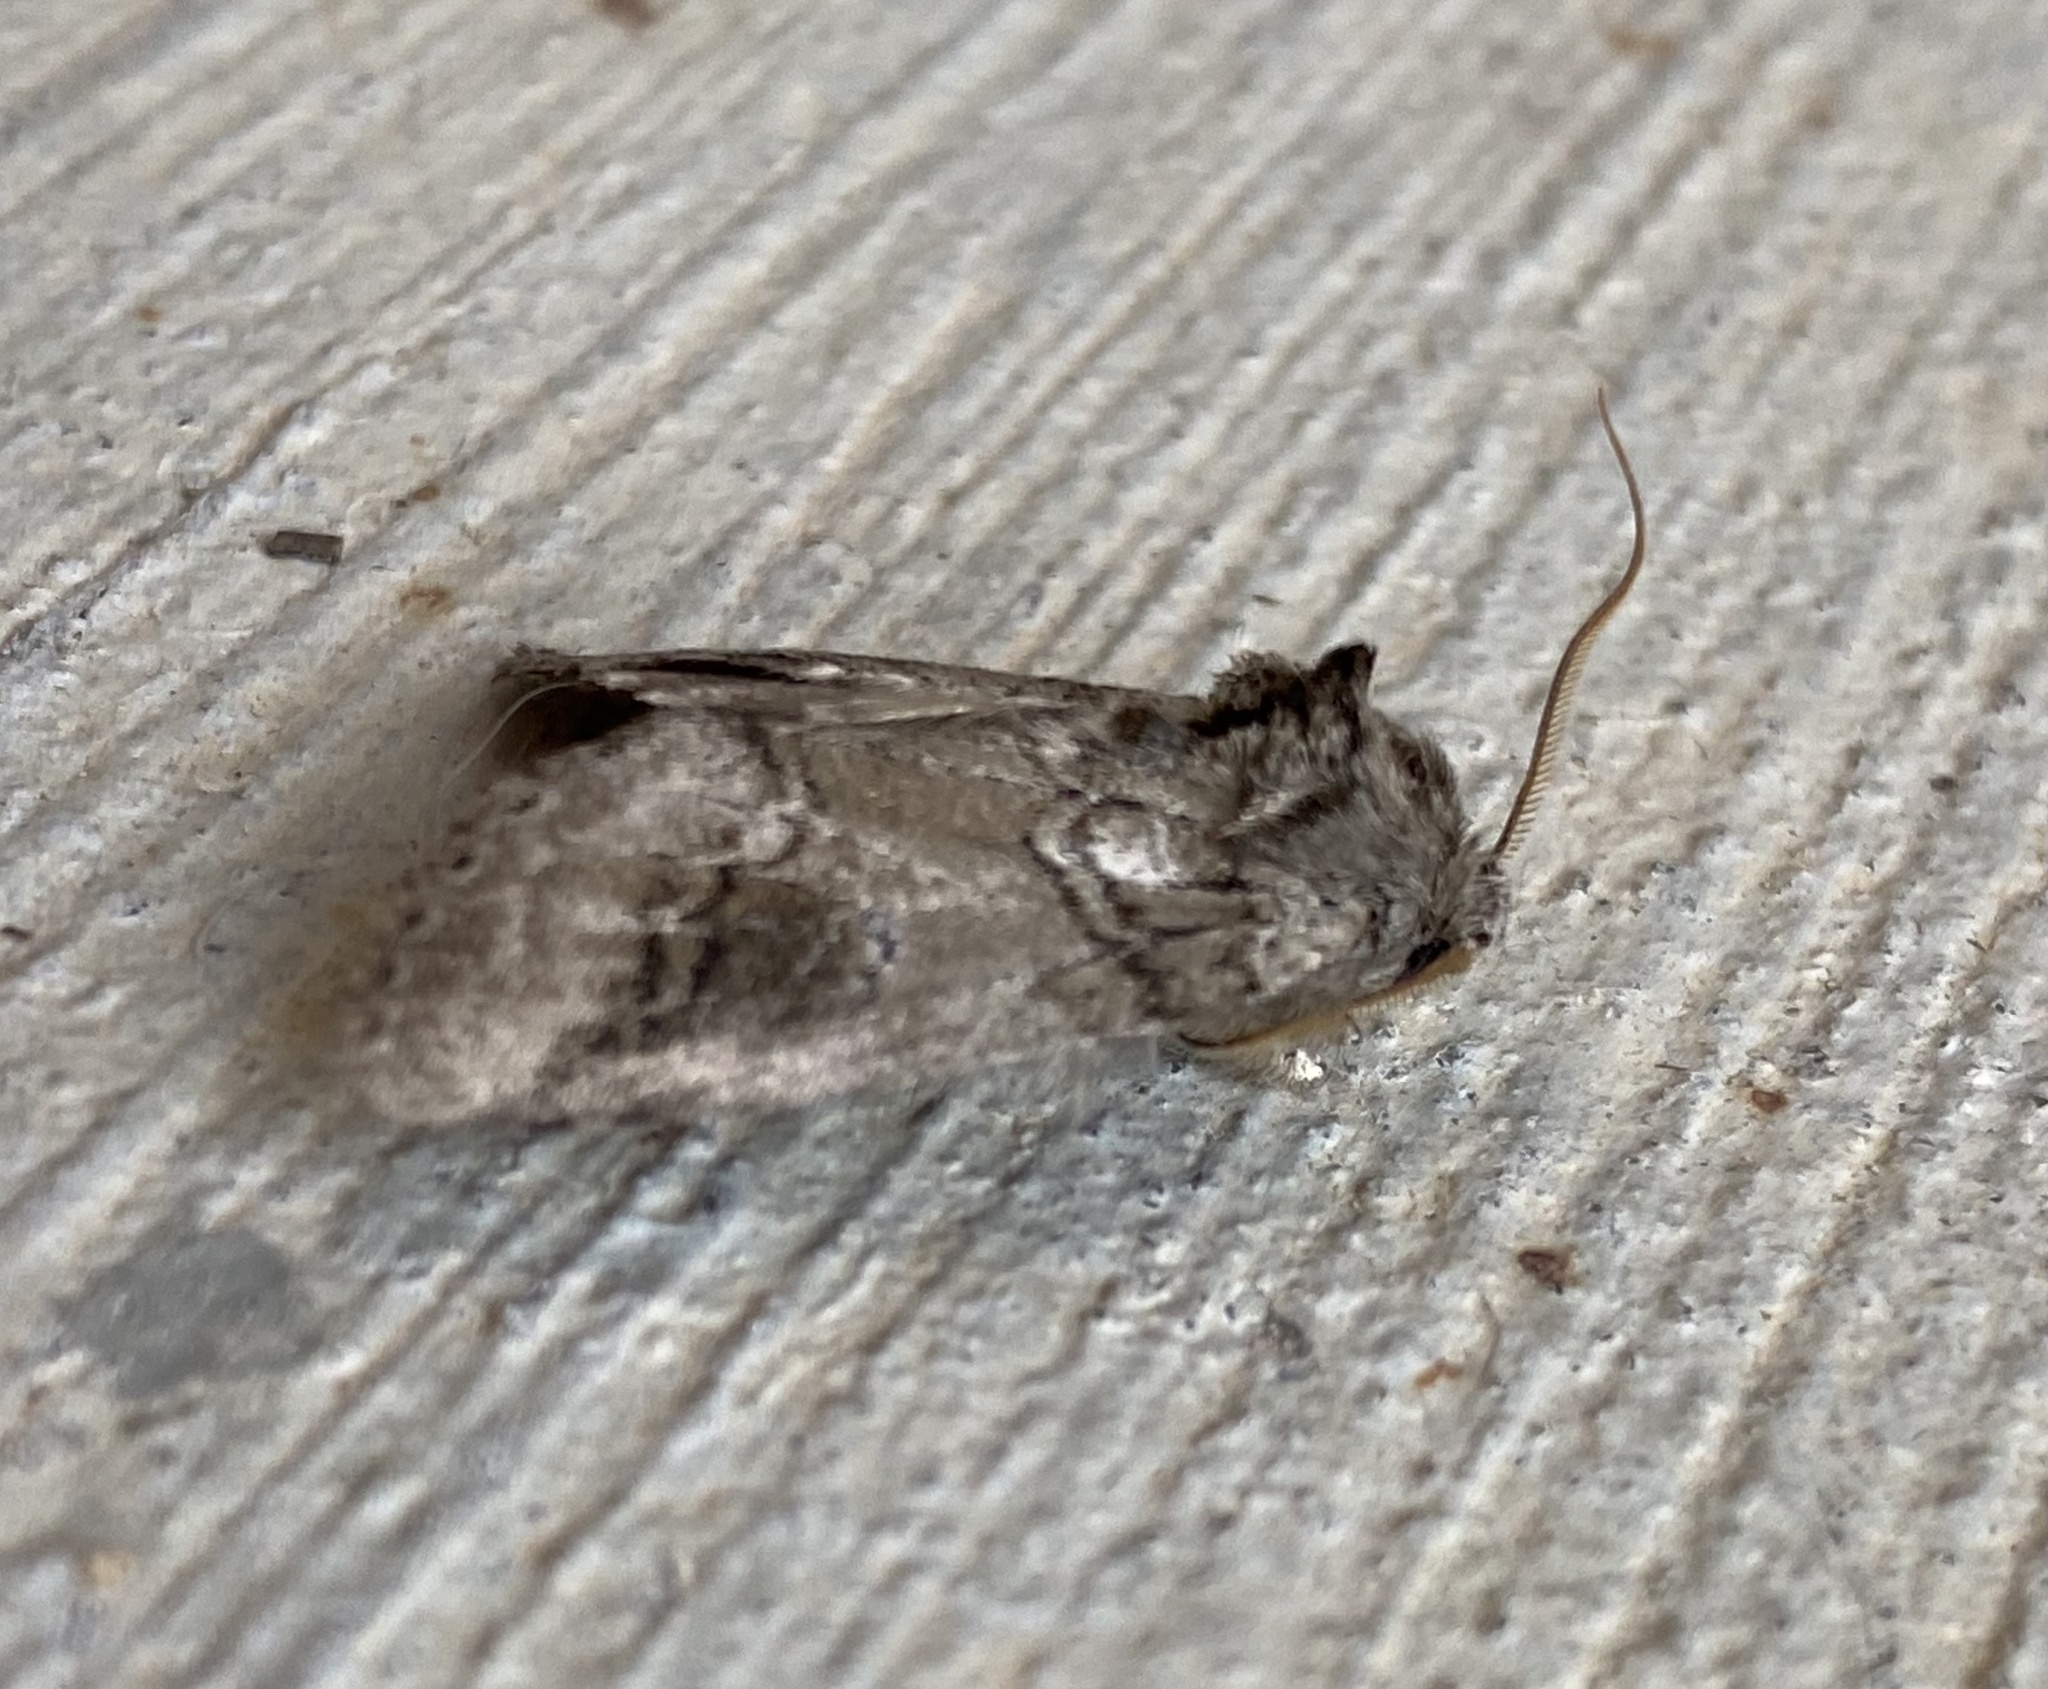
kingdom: Animalia
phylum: Arthropoda
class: Insecta
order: Lepidoptera
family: Notodontidae
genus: Lochmaeus
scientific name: Lochmaeus bilineata
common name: Double-lined prominent
